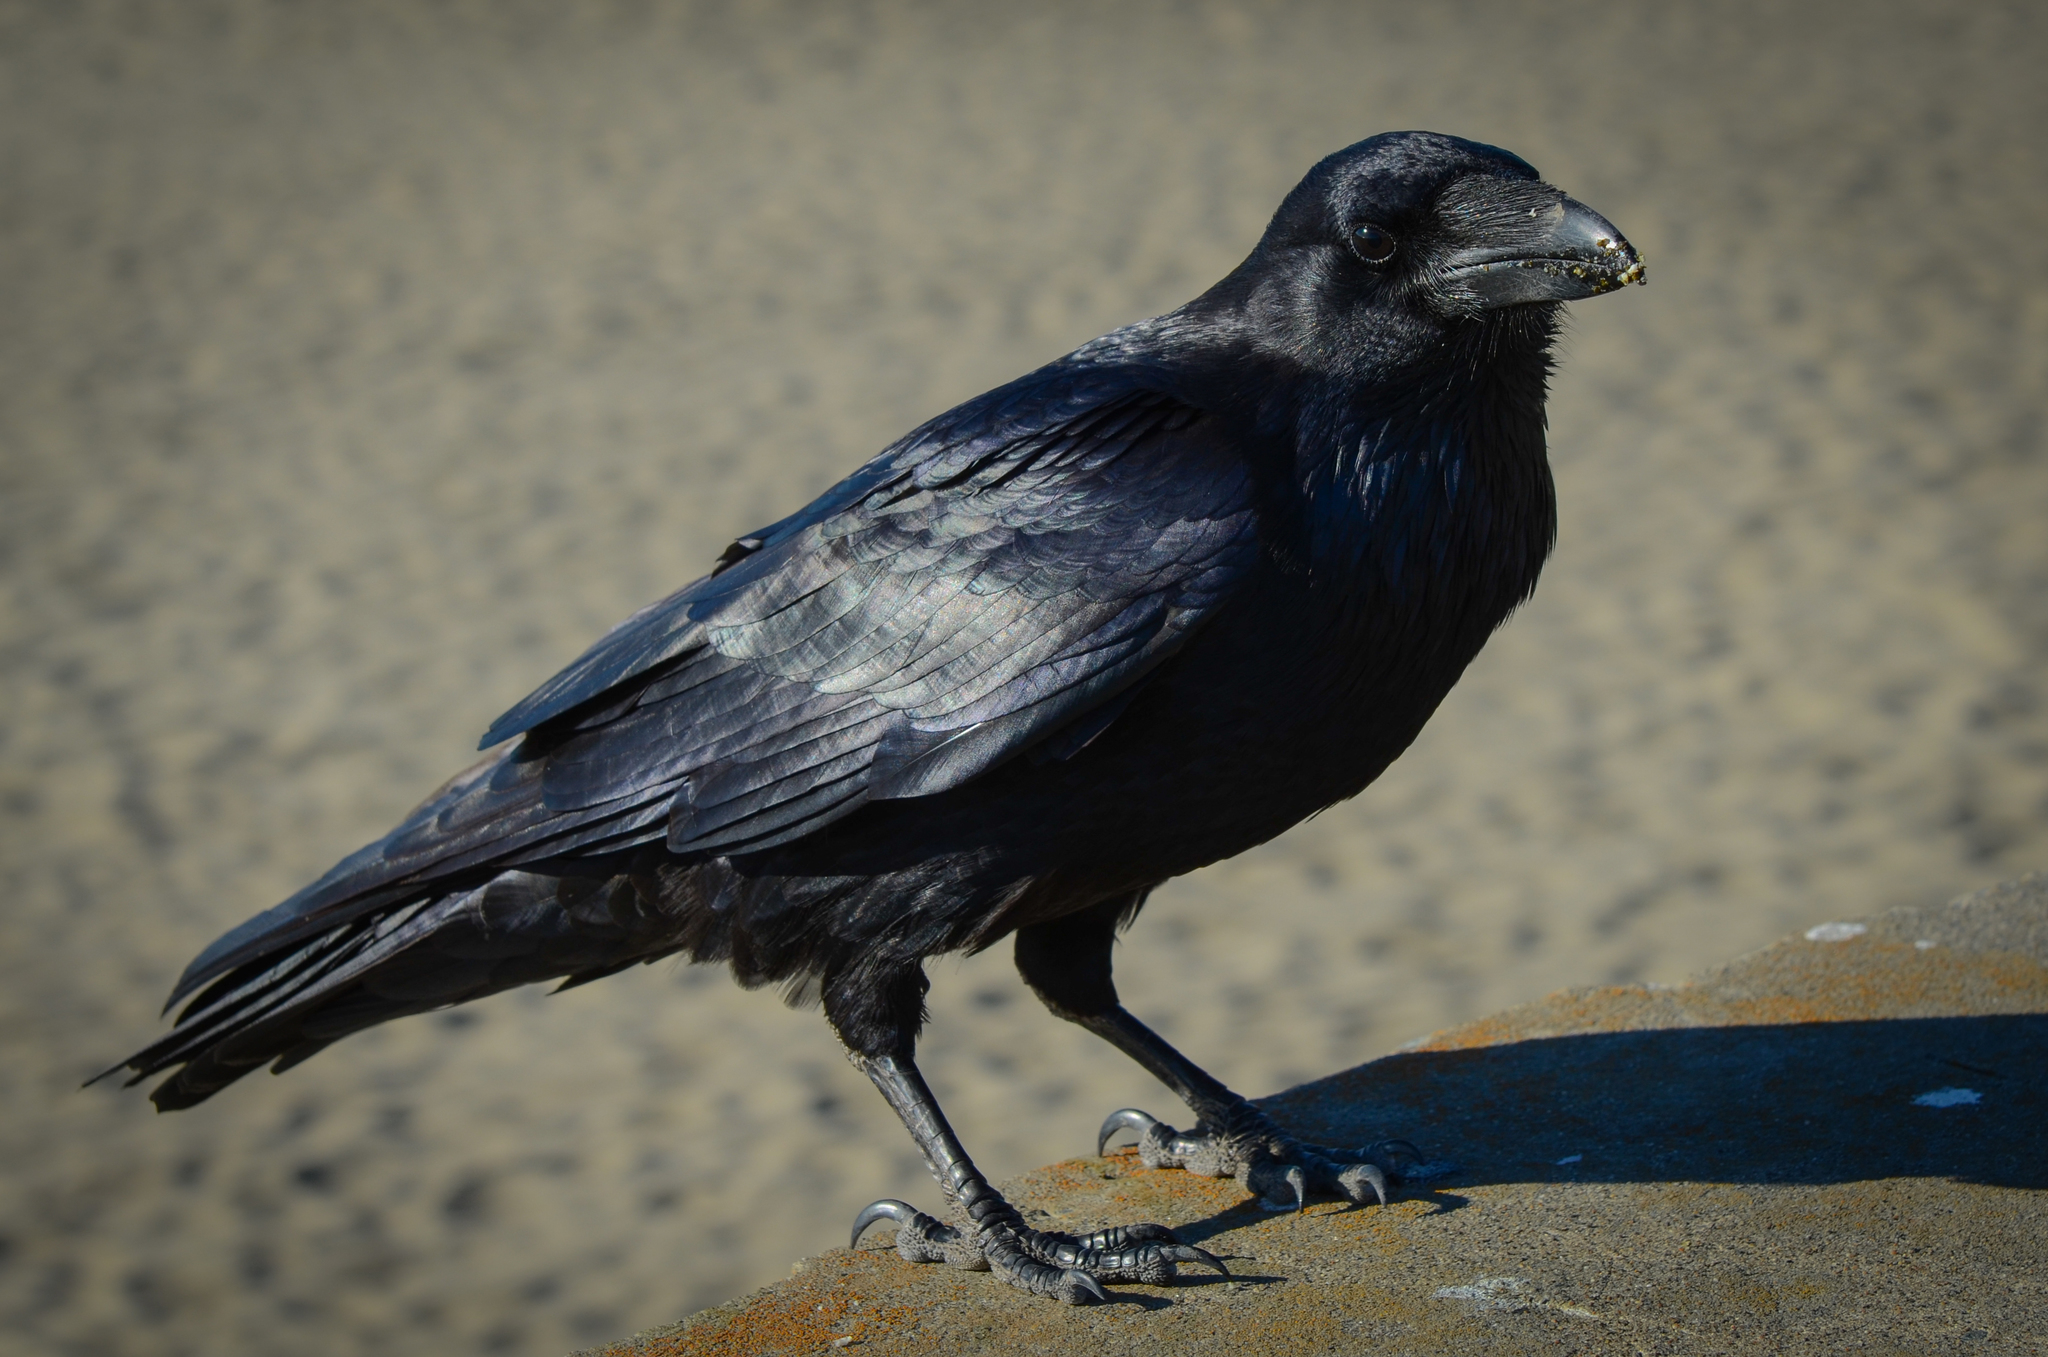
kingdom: Animalia
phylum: Chordata
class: Aves
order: Passeriformes
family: Corvidae
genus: Corvus
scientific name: Corvus corax
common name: Common raven
